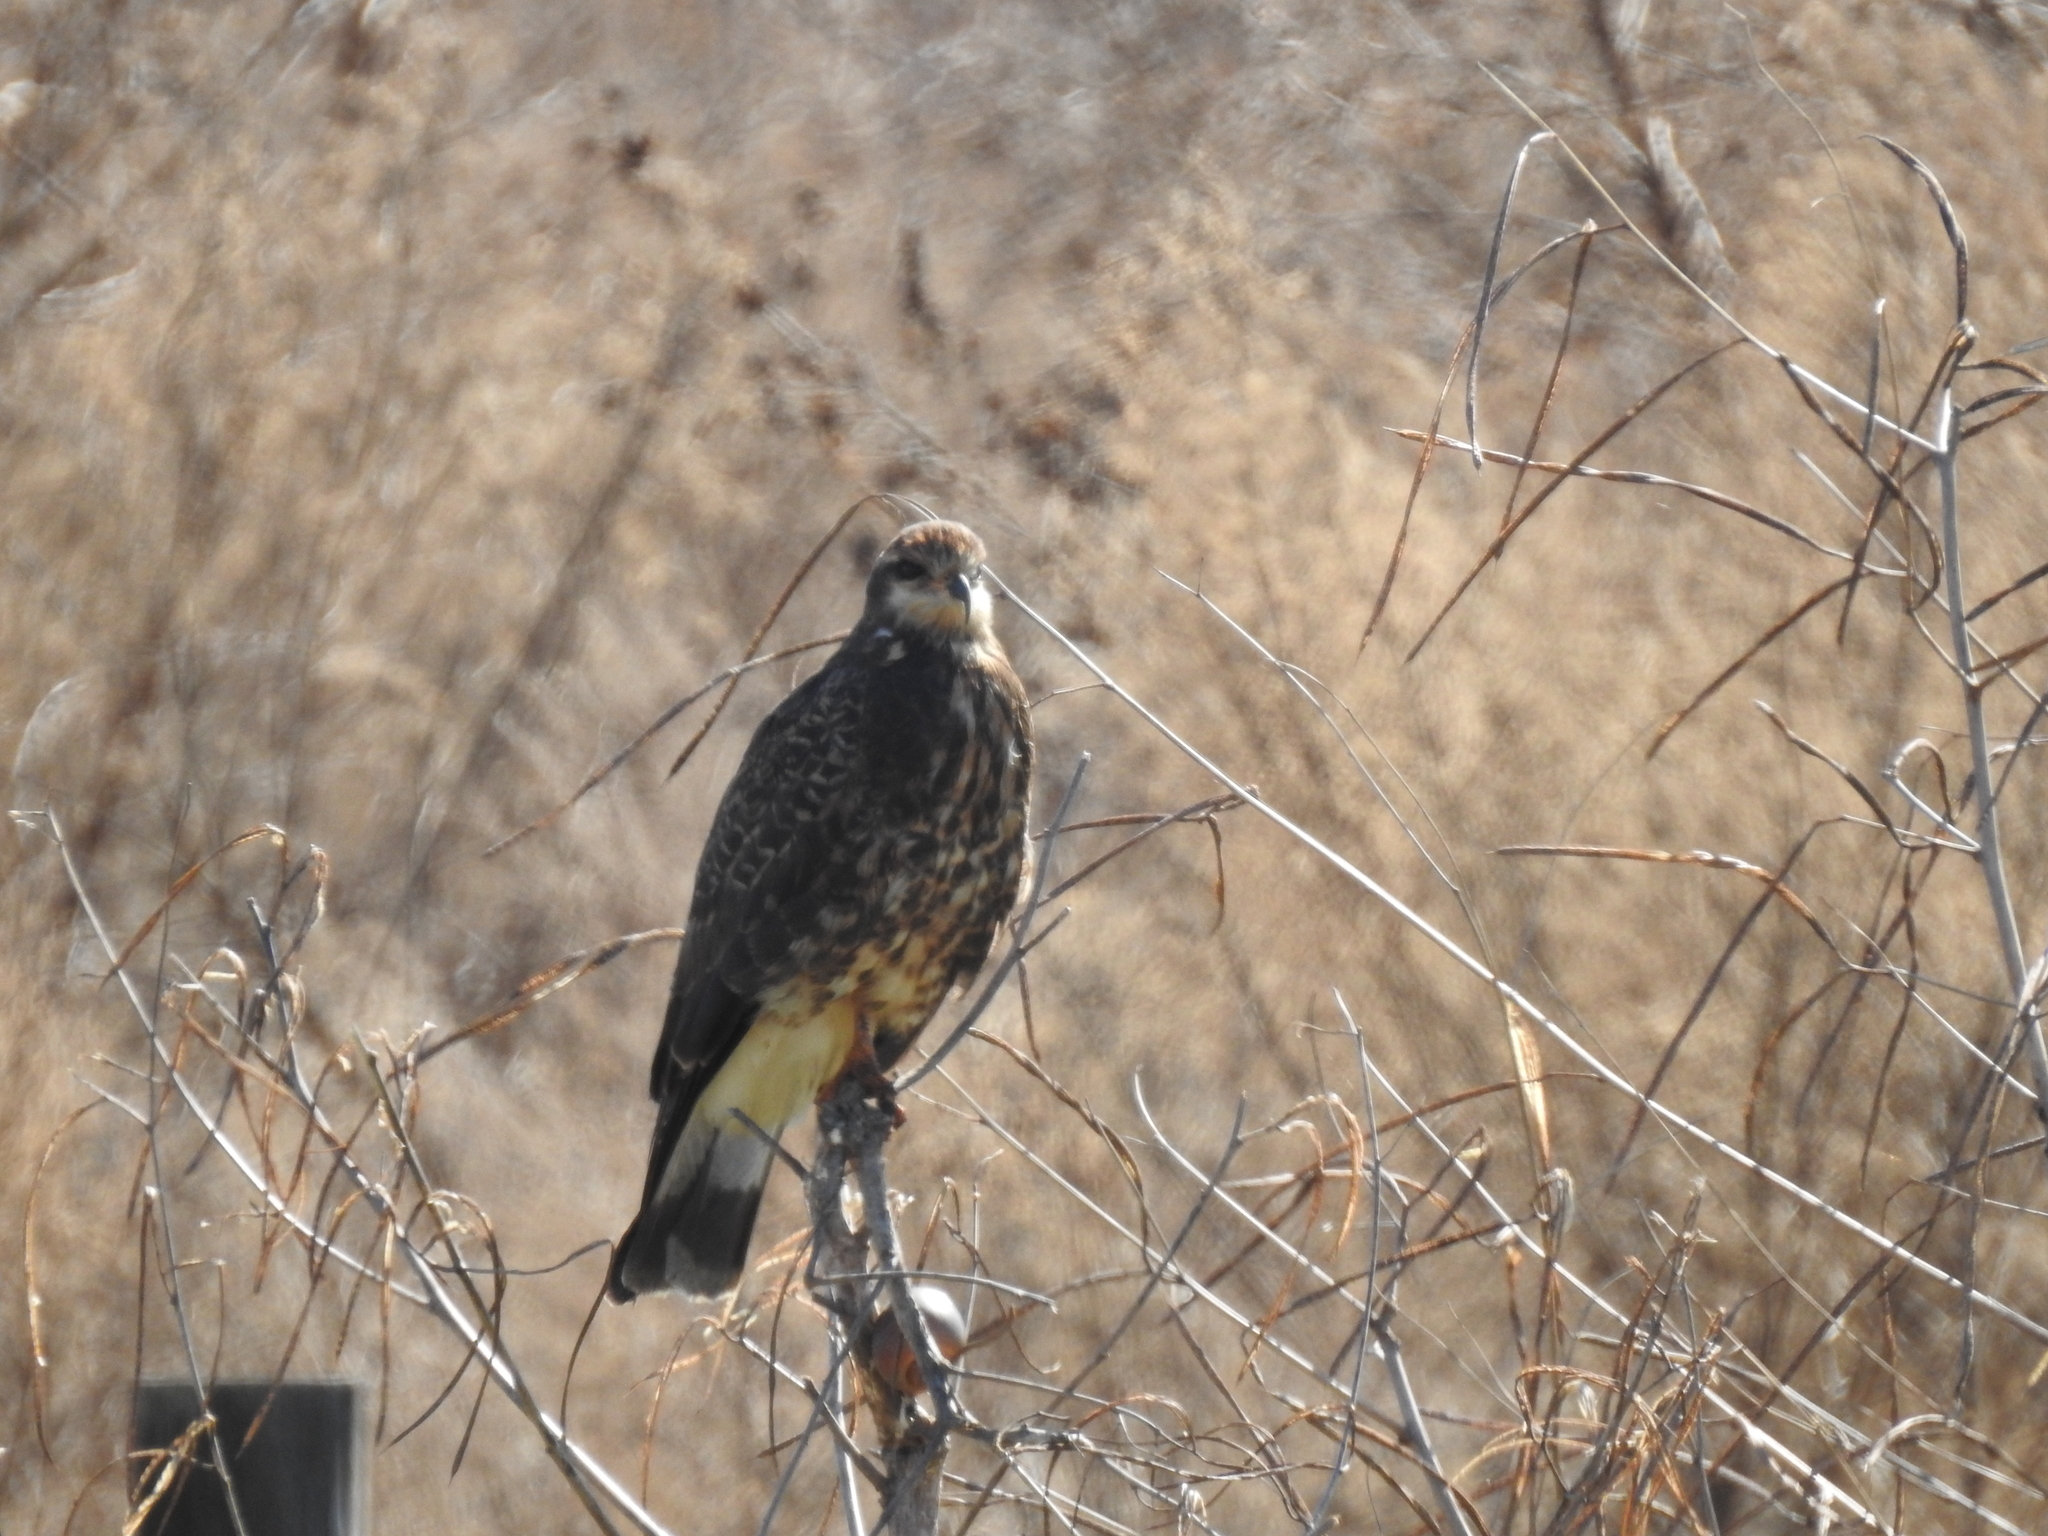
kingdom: Animalia
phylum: Chordata
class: Aves
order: Accipitriformes
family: Accipitridae
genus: Rostrhamus
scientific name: Rostrhamus sociabilis
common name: Snail kite
